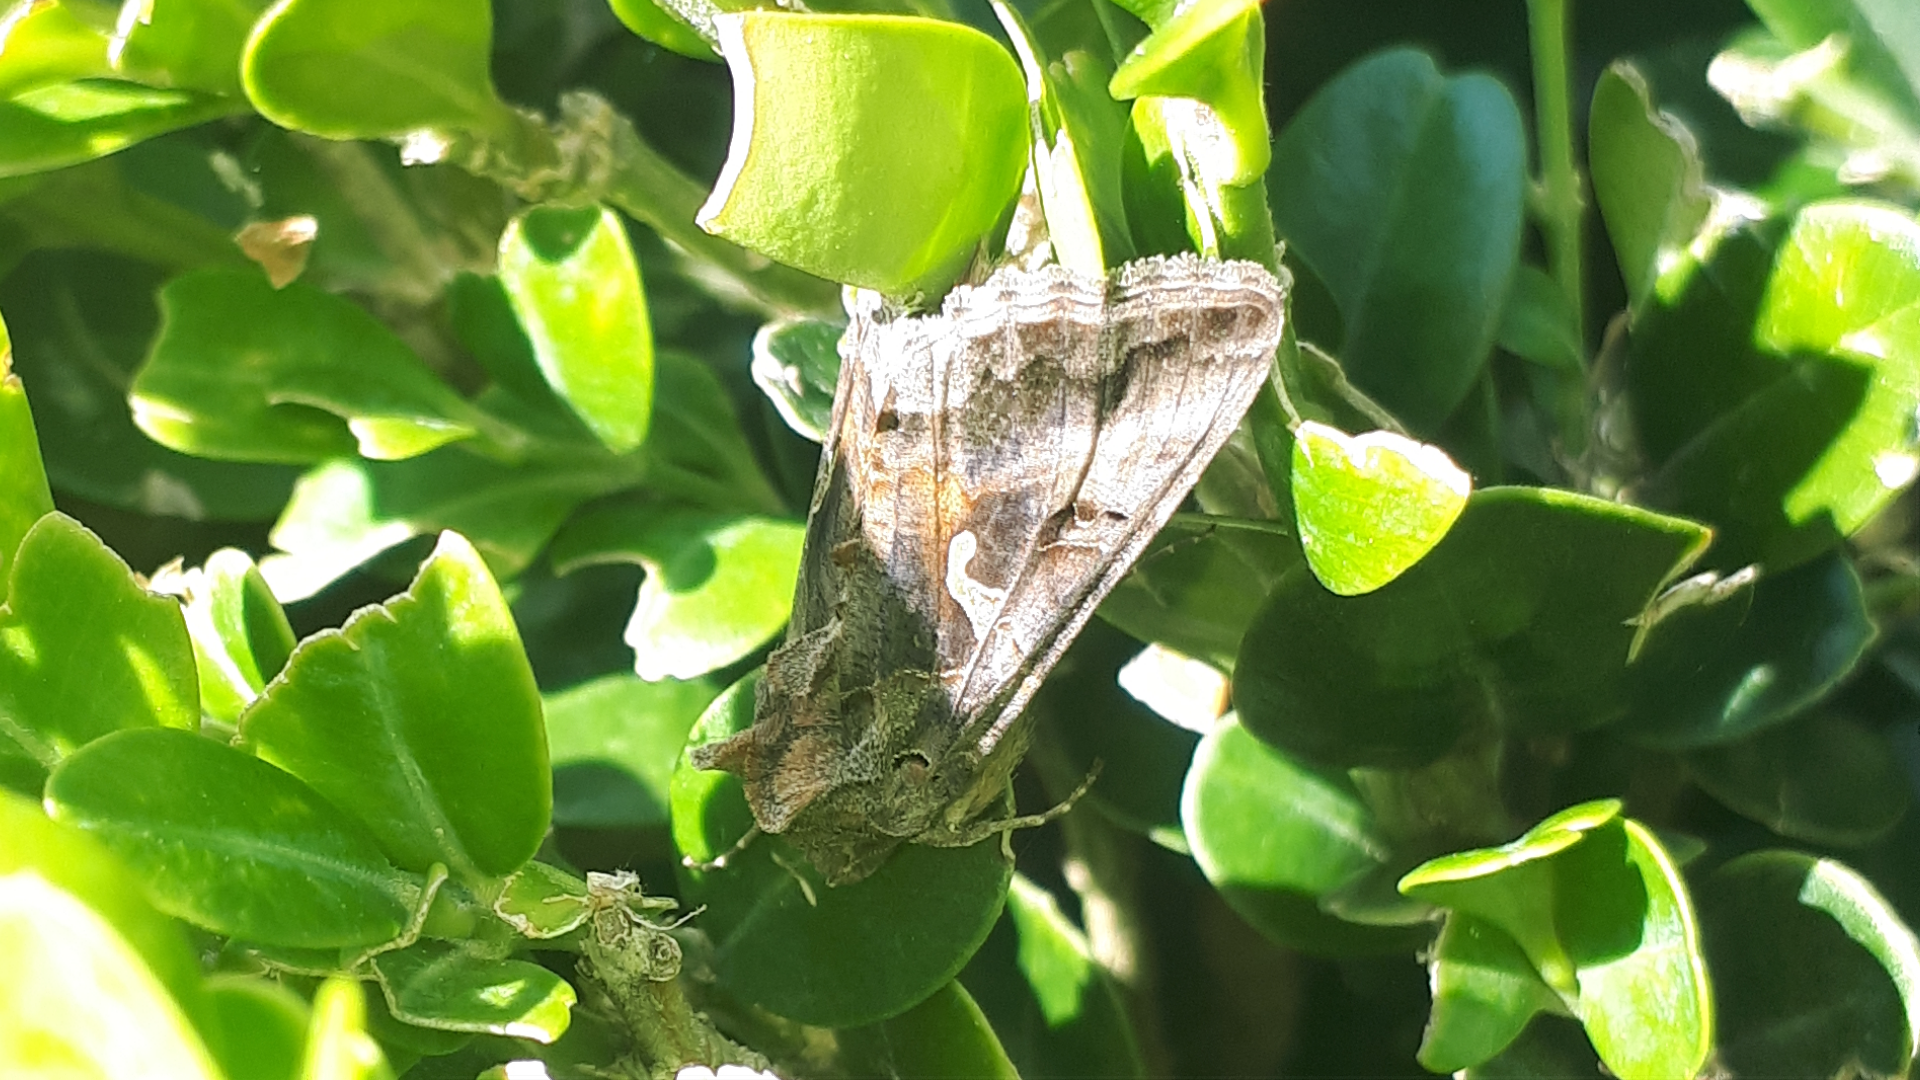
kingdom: Animalia
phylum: Arthropoda
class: Insecta
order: Lepidoptera
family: Noctuidae
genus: Autographa
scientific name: Autographa gamma
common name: Silver y
